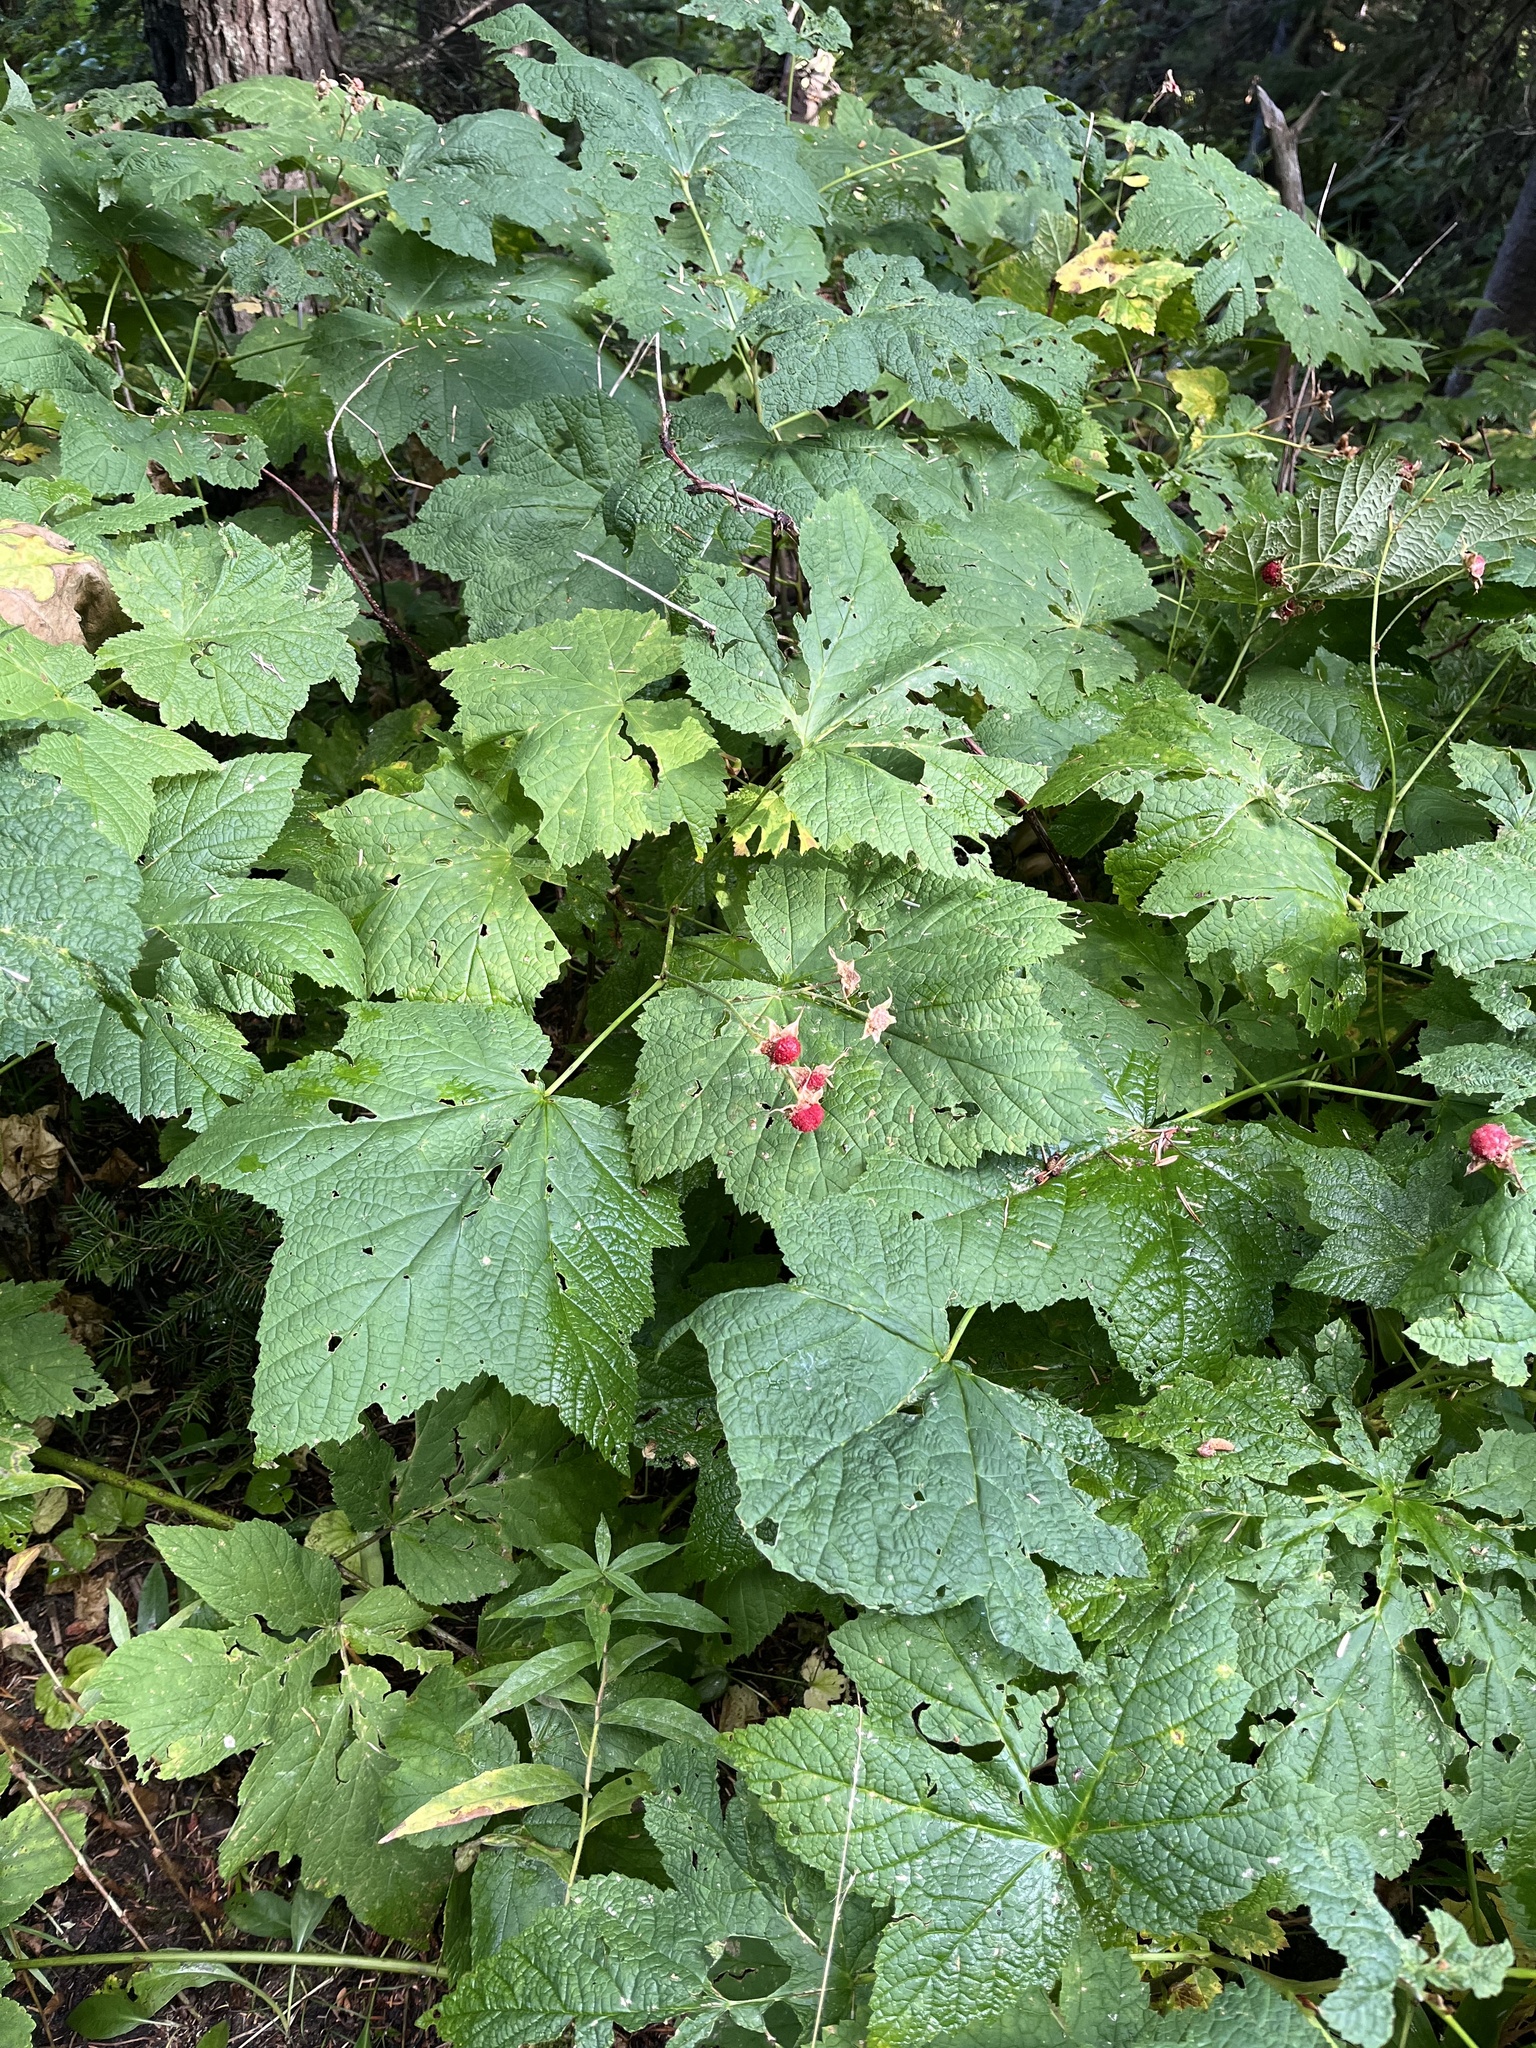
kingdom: Plantae
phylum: Tracheophyta
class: Magnoliopsida
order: Rosales
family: Rosaceae
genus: Rubus
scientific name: Rubus parviflorus
